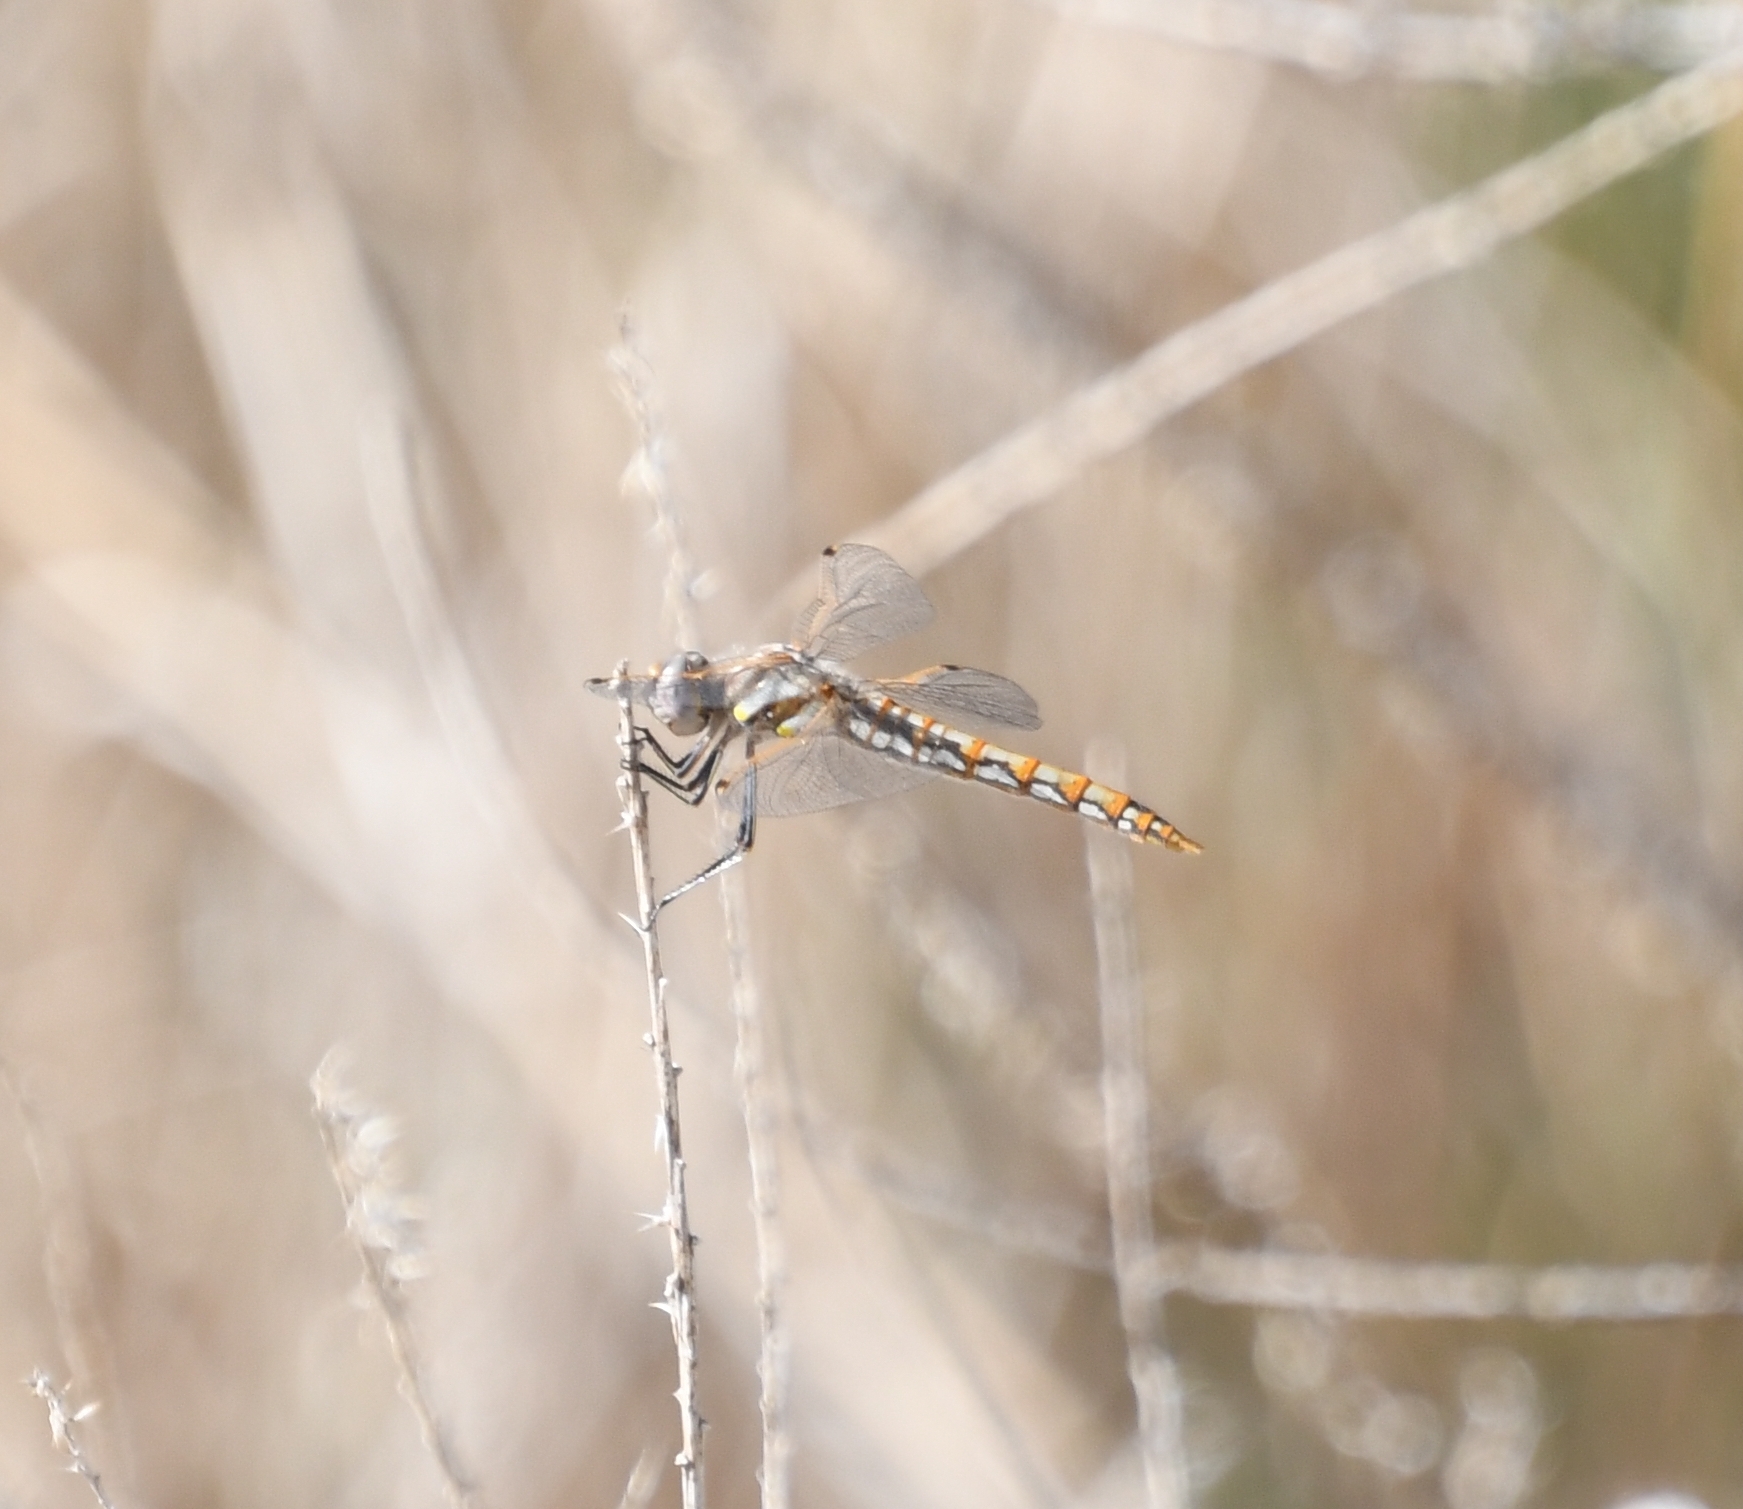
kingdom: Animalia
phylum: Arthropoda
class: Insecta
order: Odonata
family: Libellulidae
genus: Sympetrum
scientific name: Sympetrum corruptum
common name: Variegated meadowhawk
